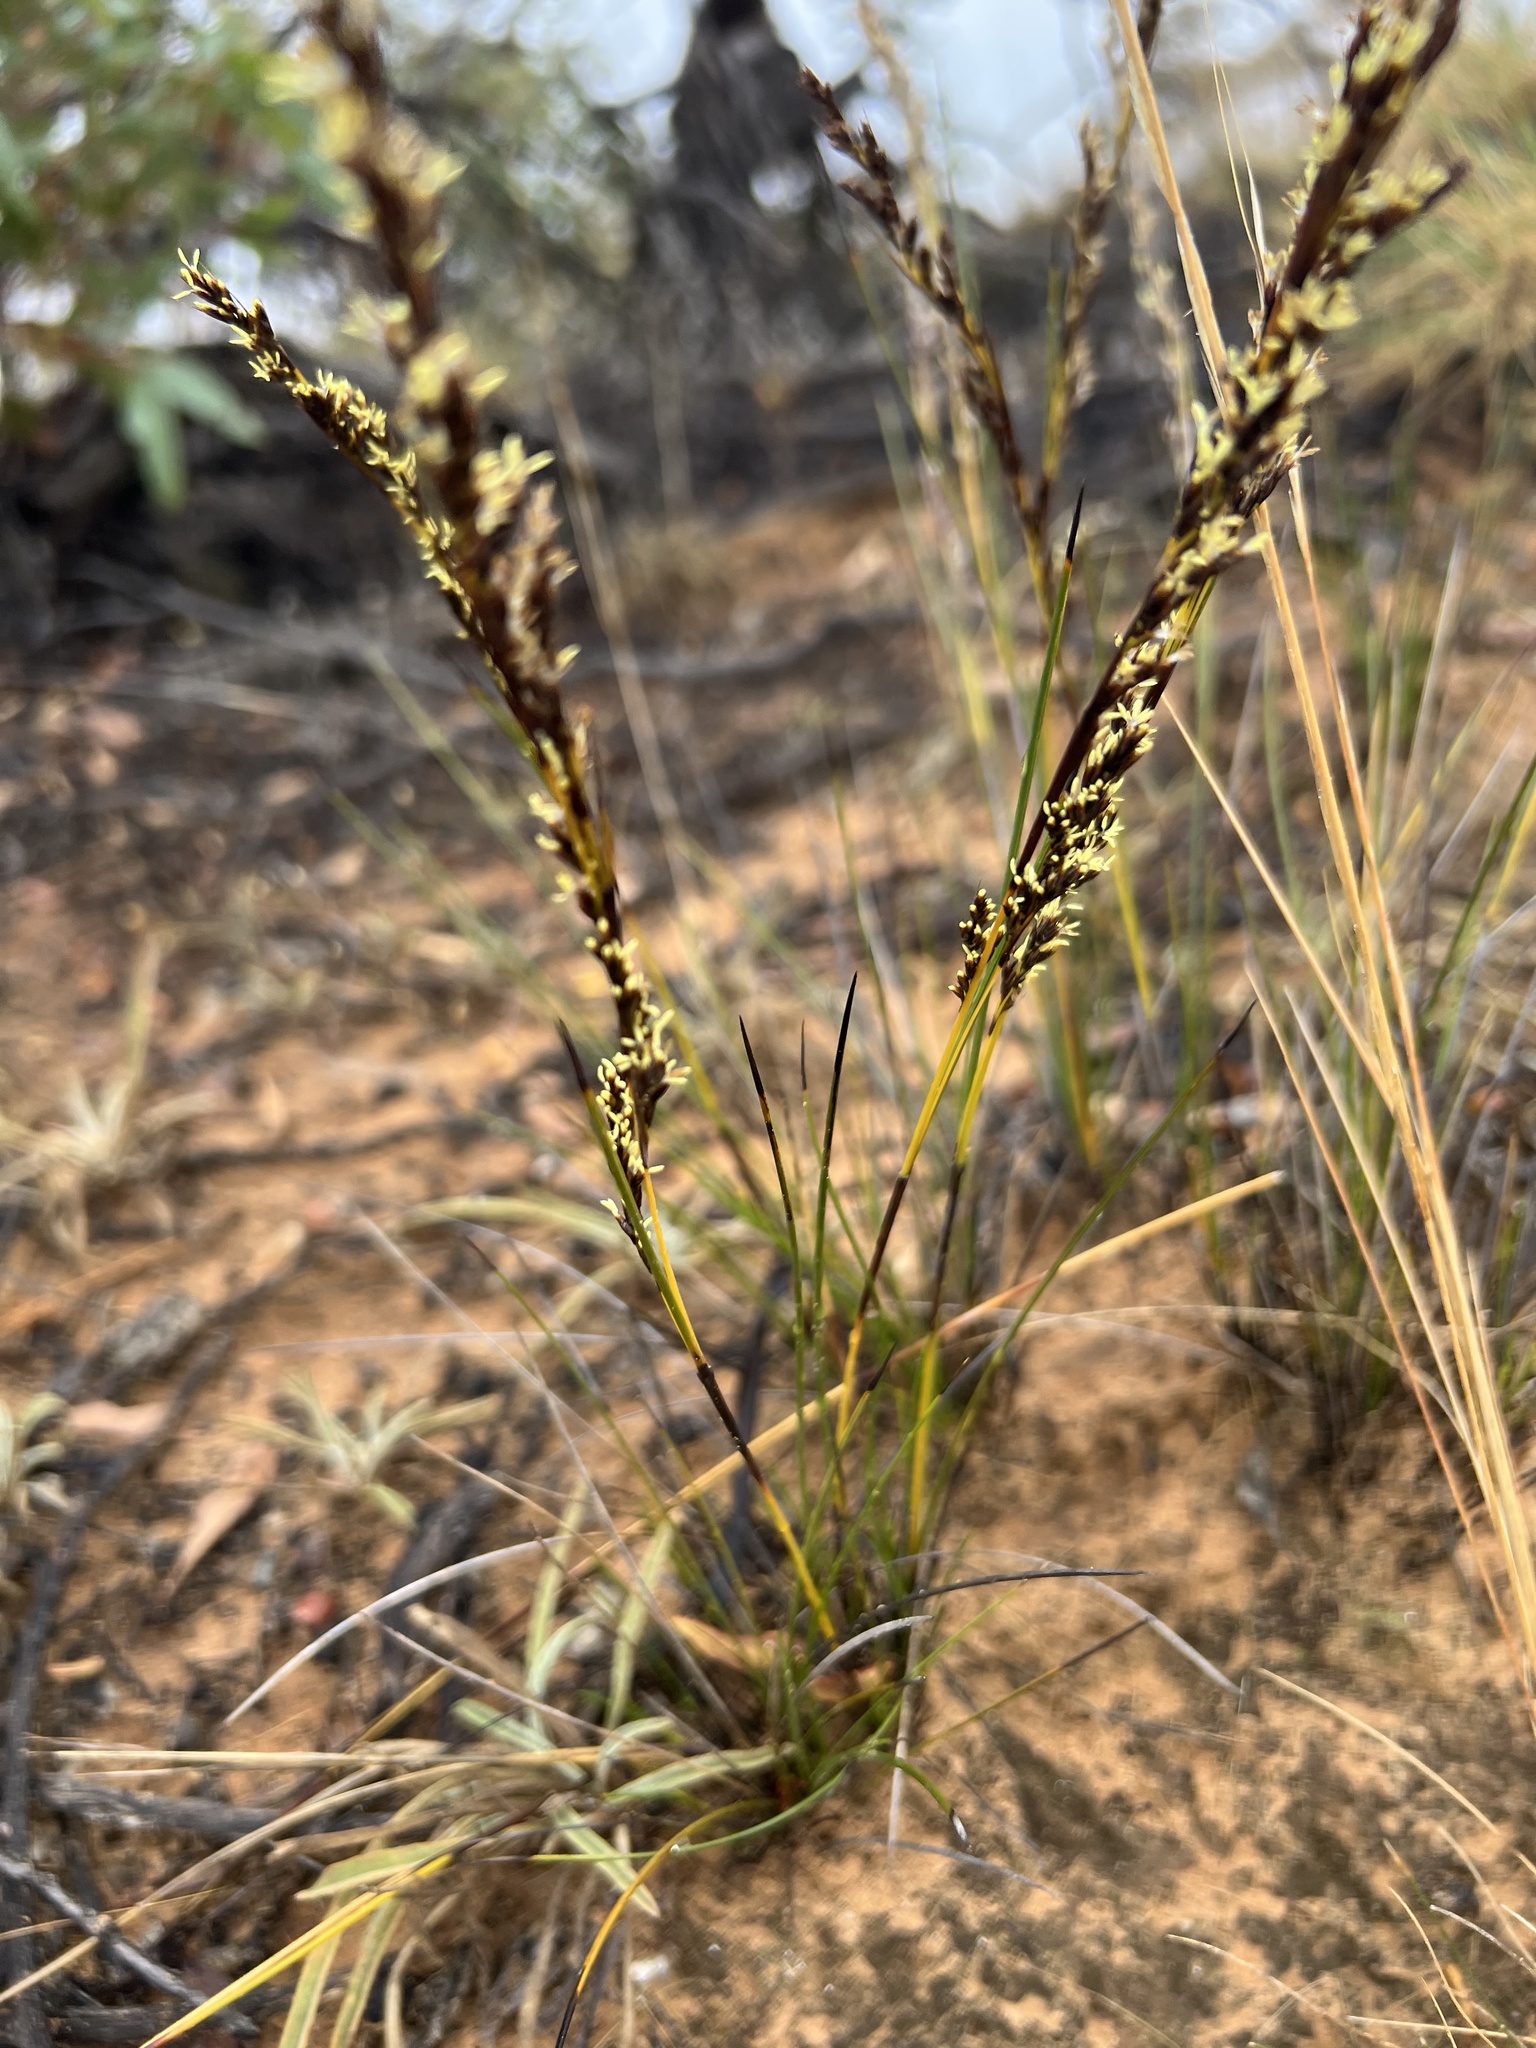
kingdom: Plantae
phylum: Tracheophyta
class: Liliopsida
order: Poales
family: Cyperaceae
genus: Lepidosperma
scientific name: Lepidosperma viscidum
